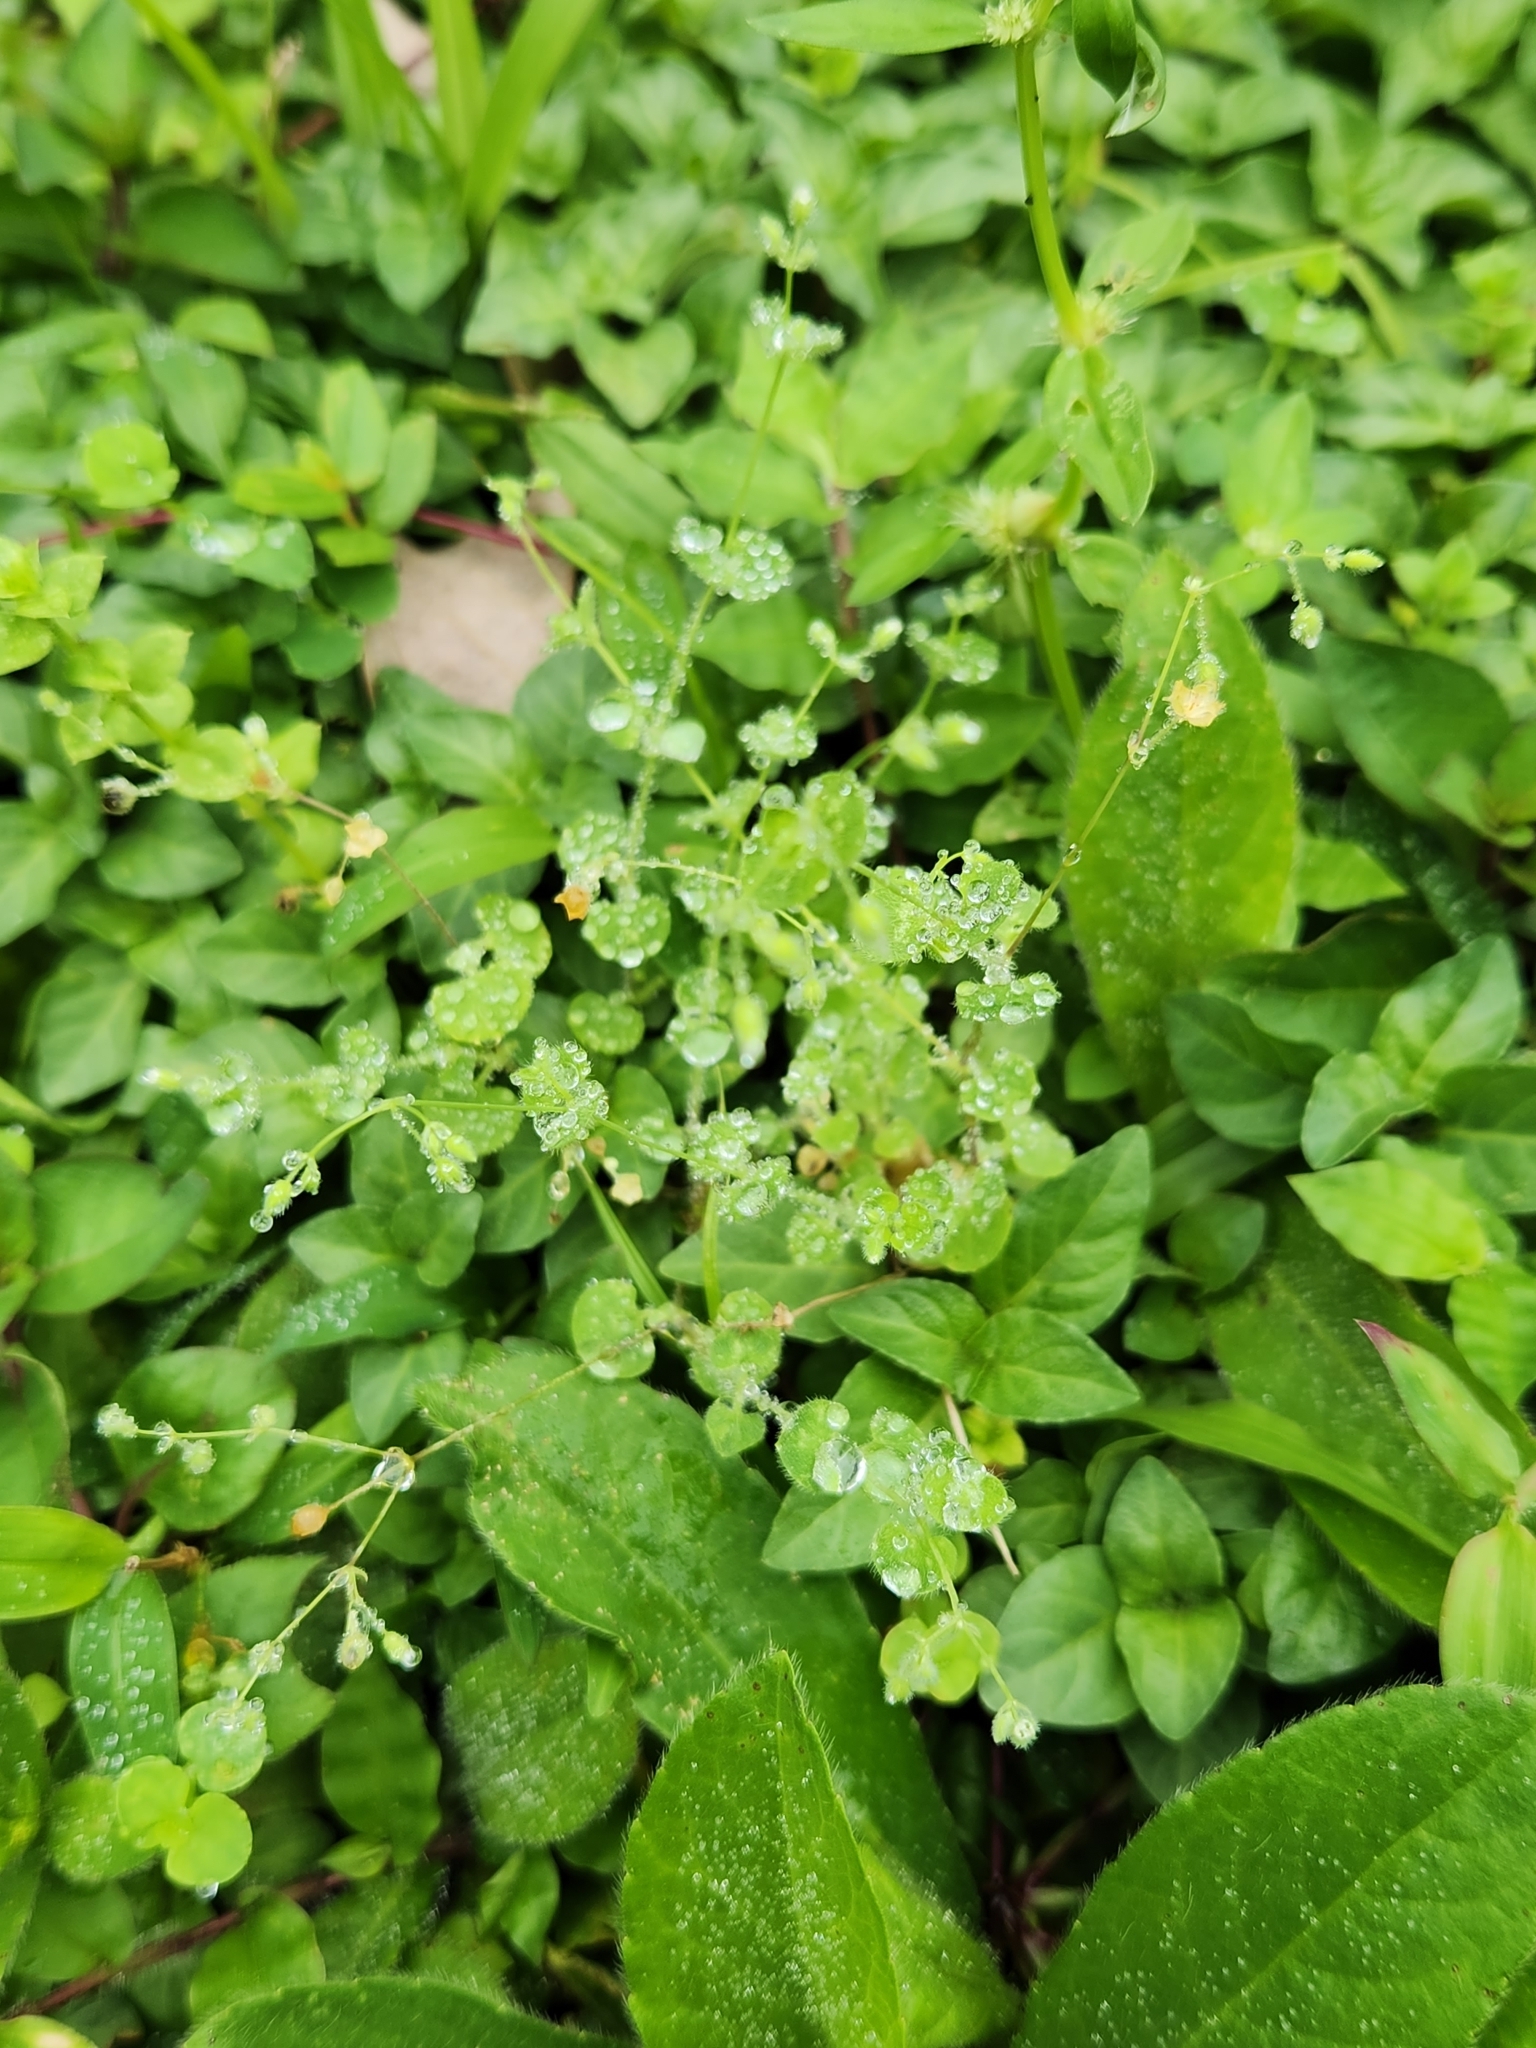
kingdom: Plantae
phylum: Tracheophyta
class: Magnoliopsida
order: Caryophyllales
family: Caryophyllaceae
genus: Drymaria
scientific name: Drymaria cordata
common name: Whitesnow
